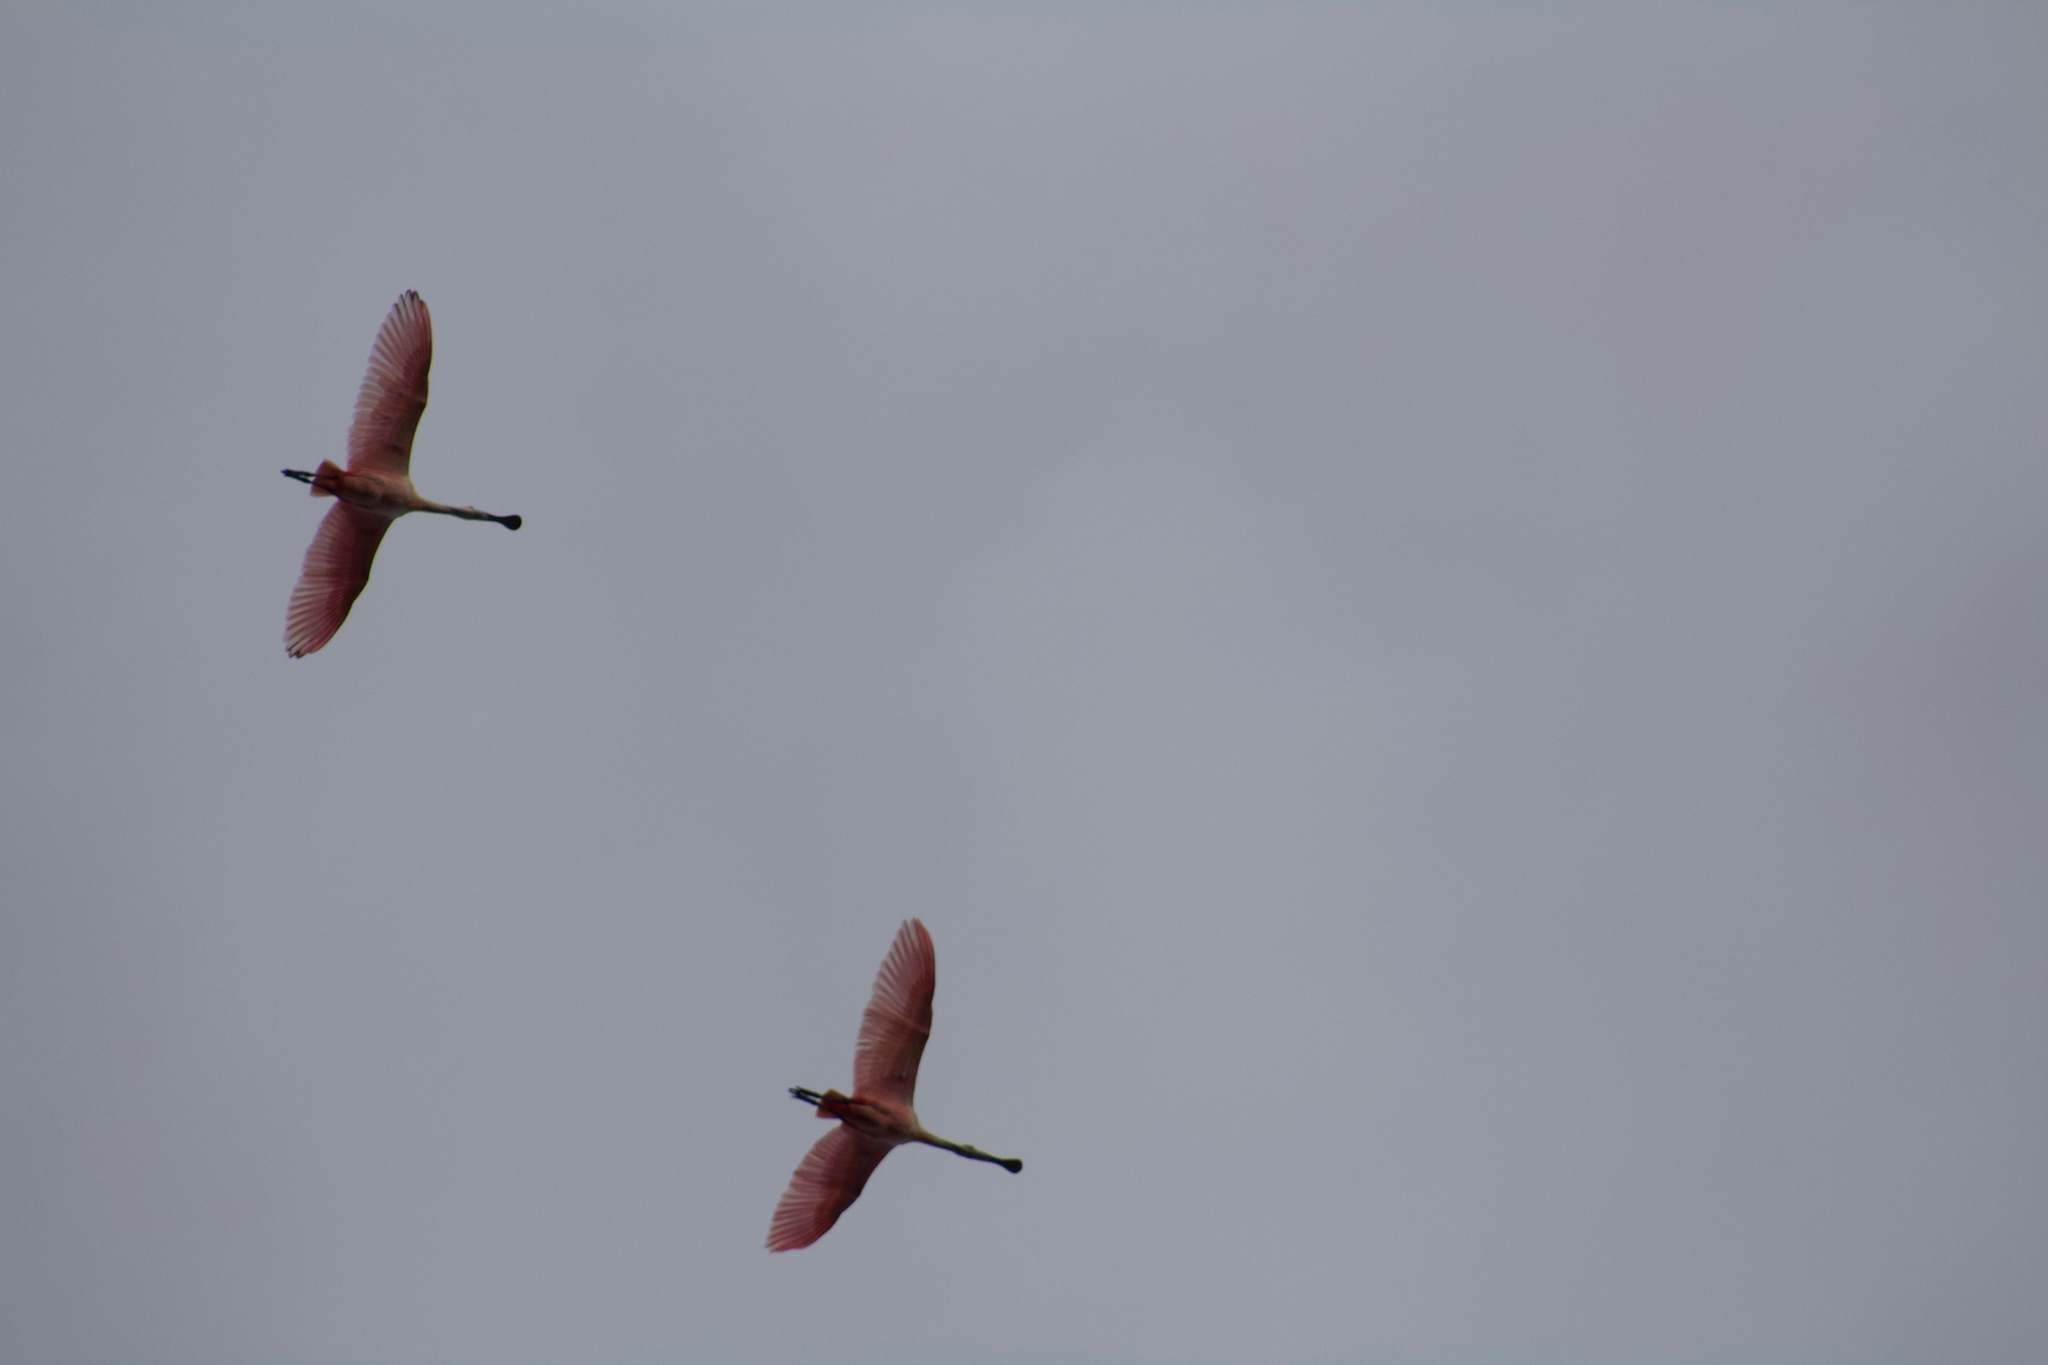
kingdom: Animalia
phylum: Chordata
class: Aves
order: Pelecaniformes
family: Threskiornithidae
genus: Platalea
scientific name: Platalea ajaja
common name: Roseate spoonbill
